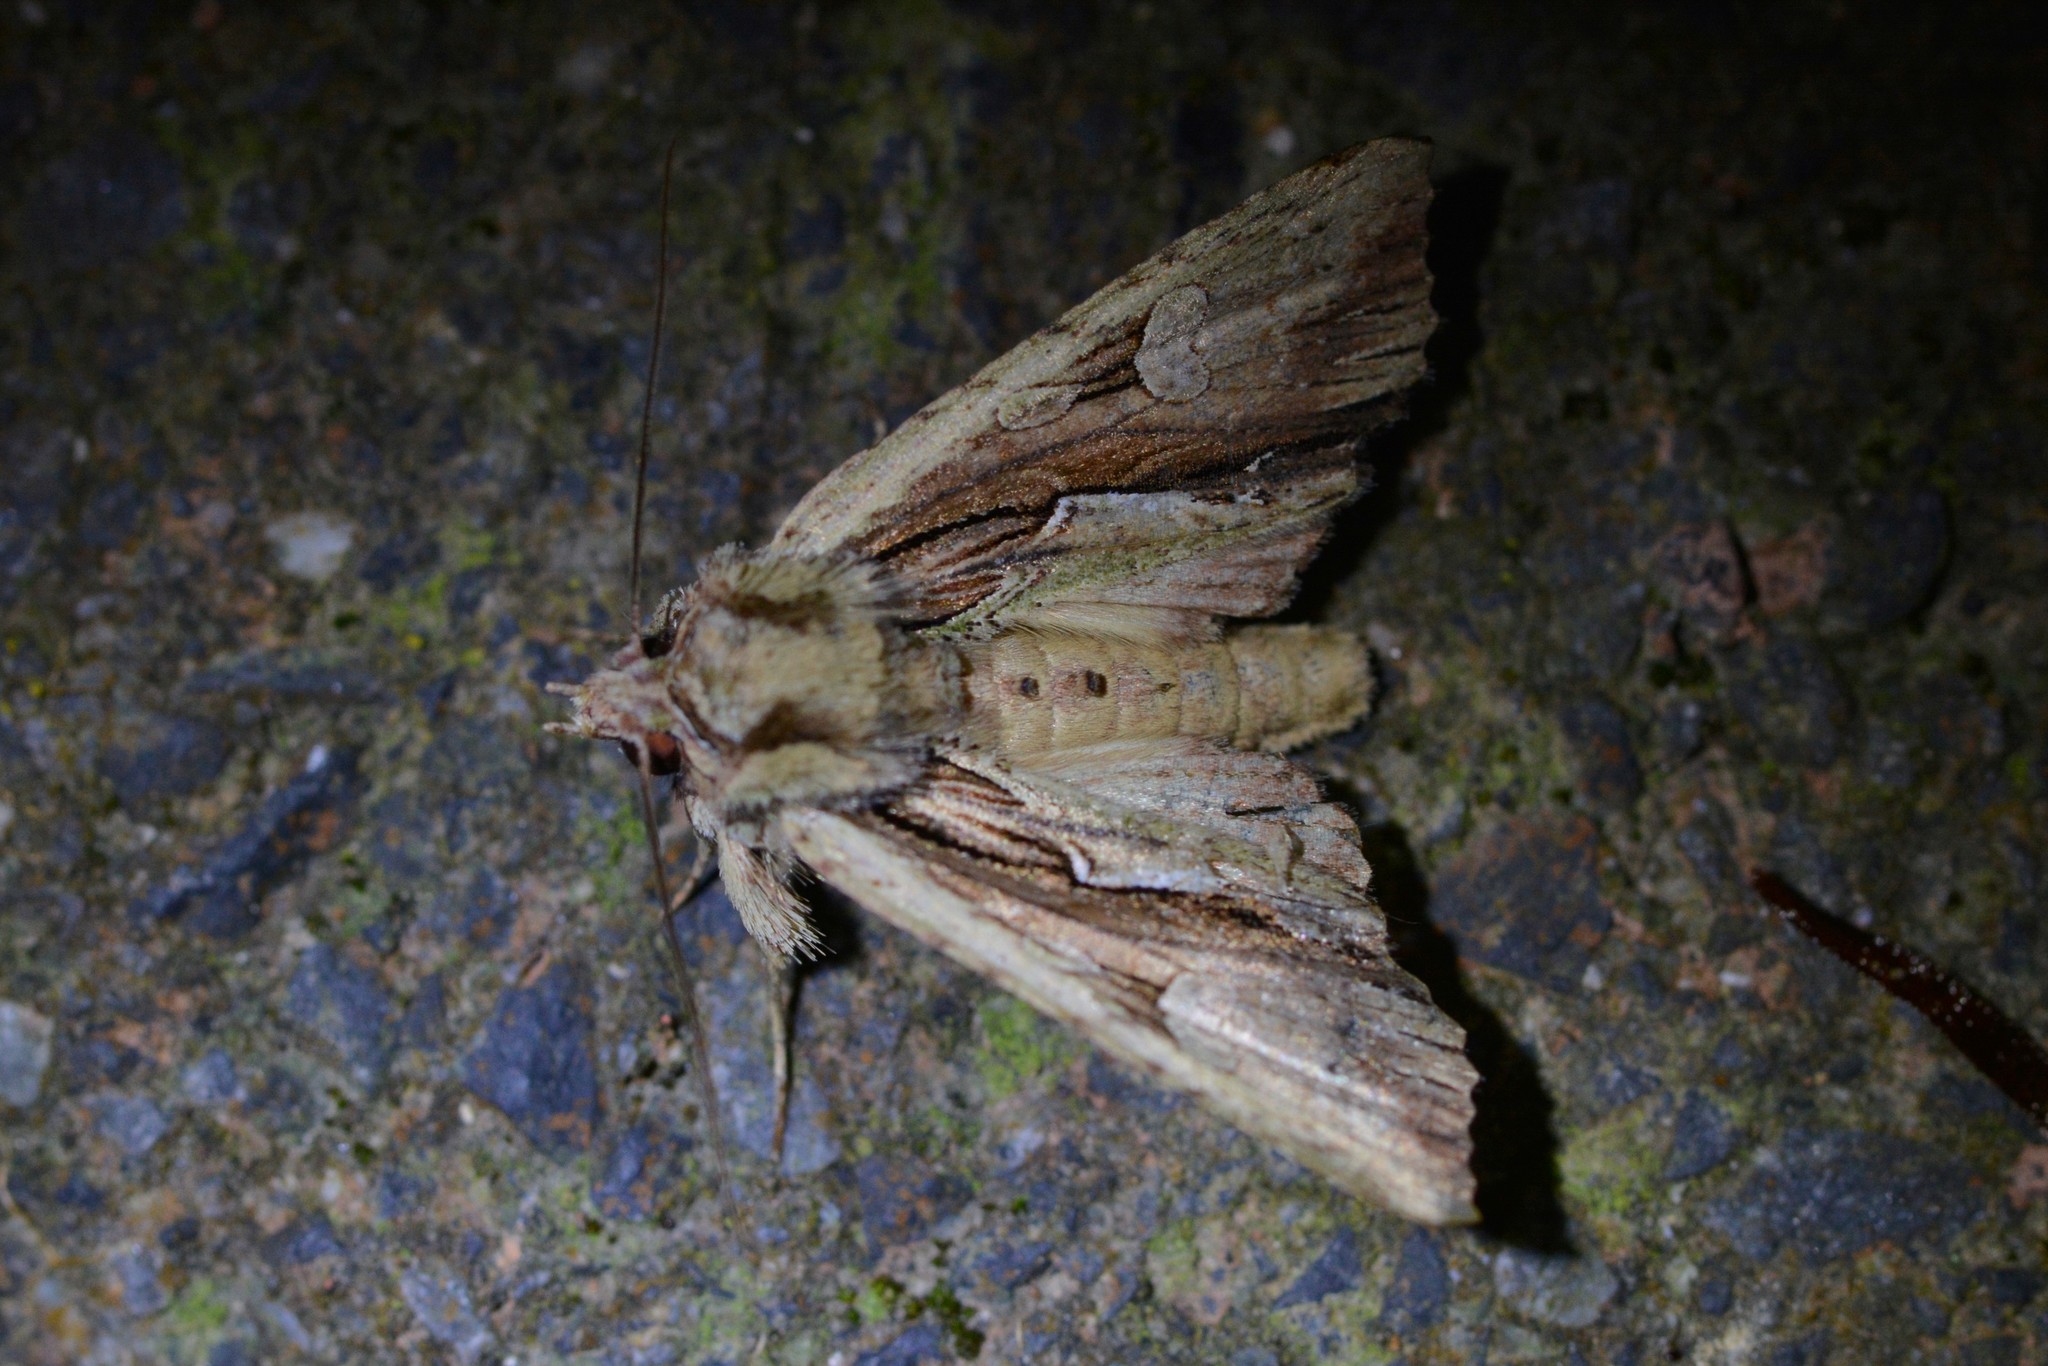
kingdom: Animalia
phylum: Arthropoda
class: Insecta
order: Lepidoptera
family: Noctuidae
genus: Meterana
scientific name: Meterana decorata
